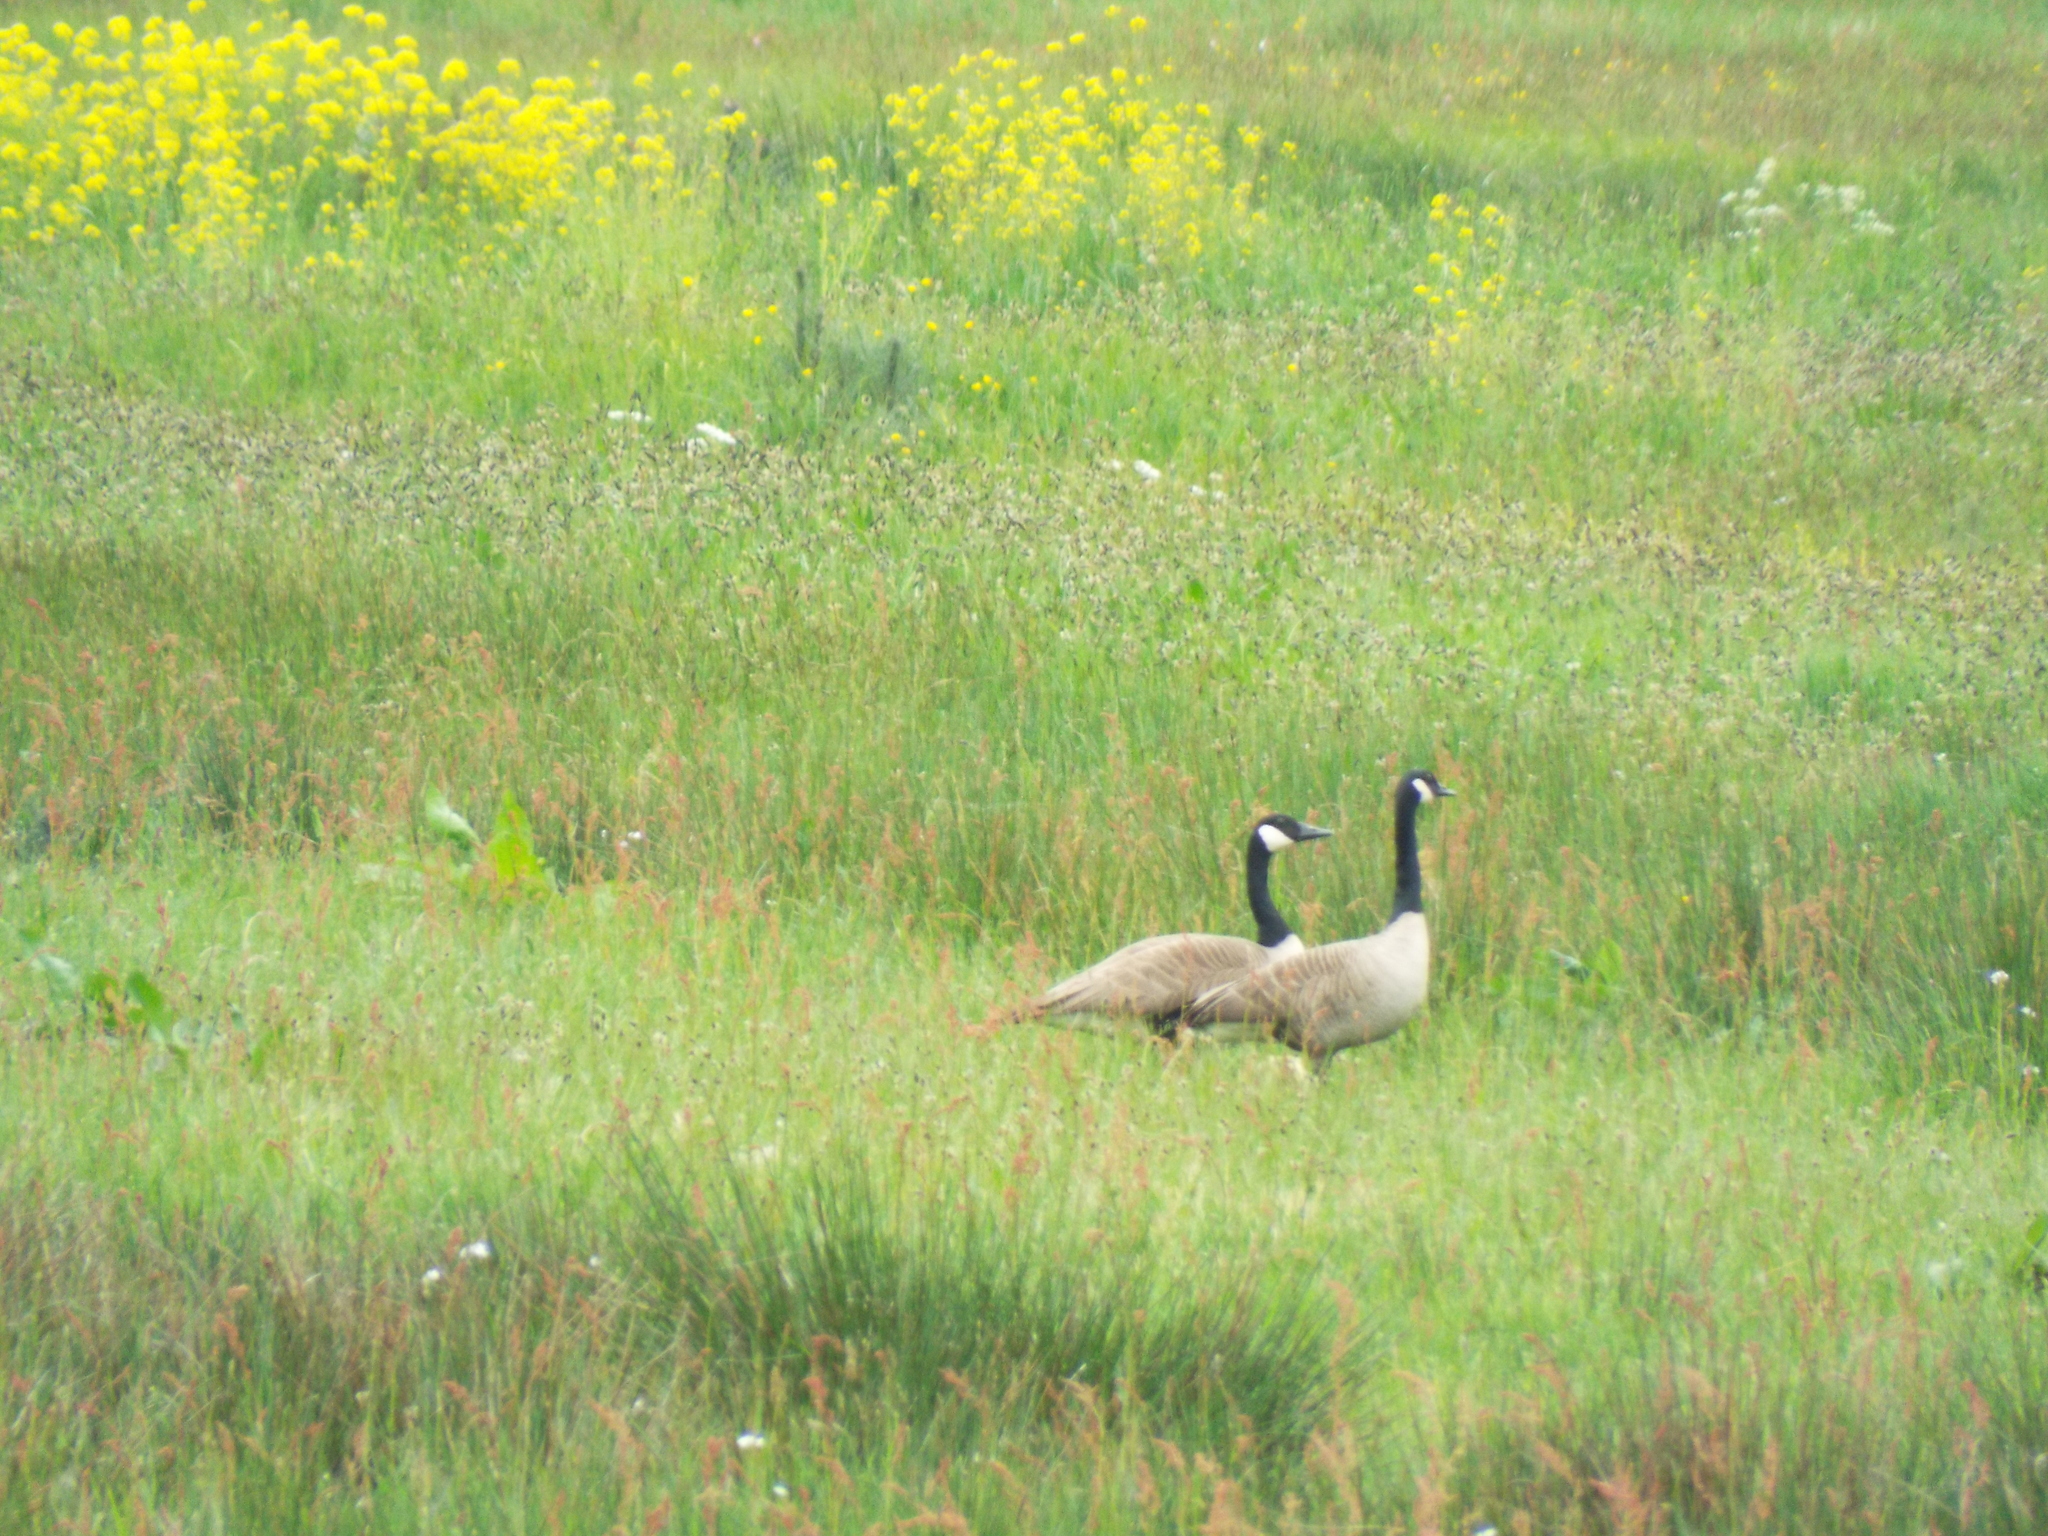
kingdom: Animalia
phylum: Chordata
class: Aves
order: Anseriformes
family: Anatidae
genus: Branta
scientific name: Branta canadensis
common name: Canada goose
